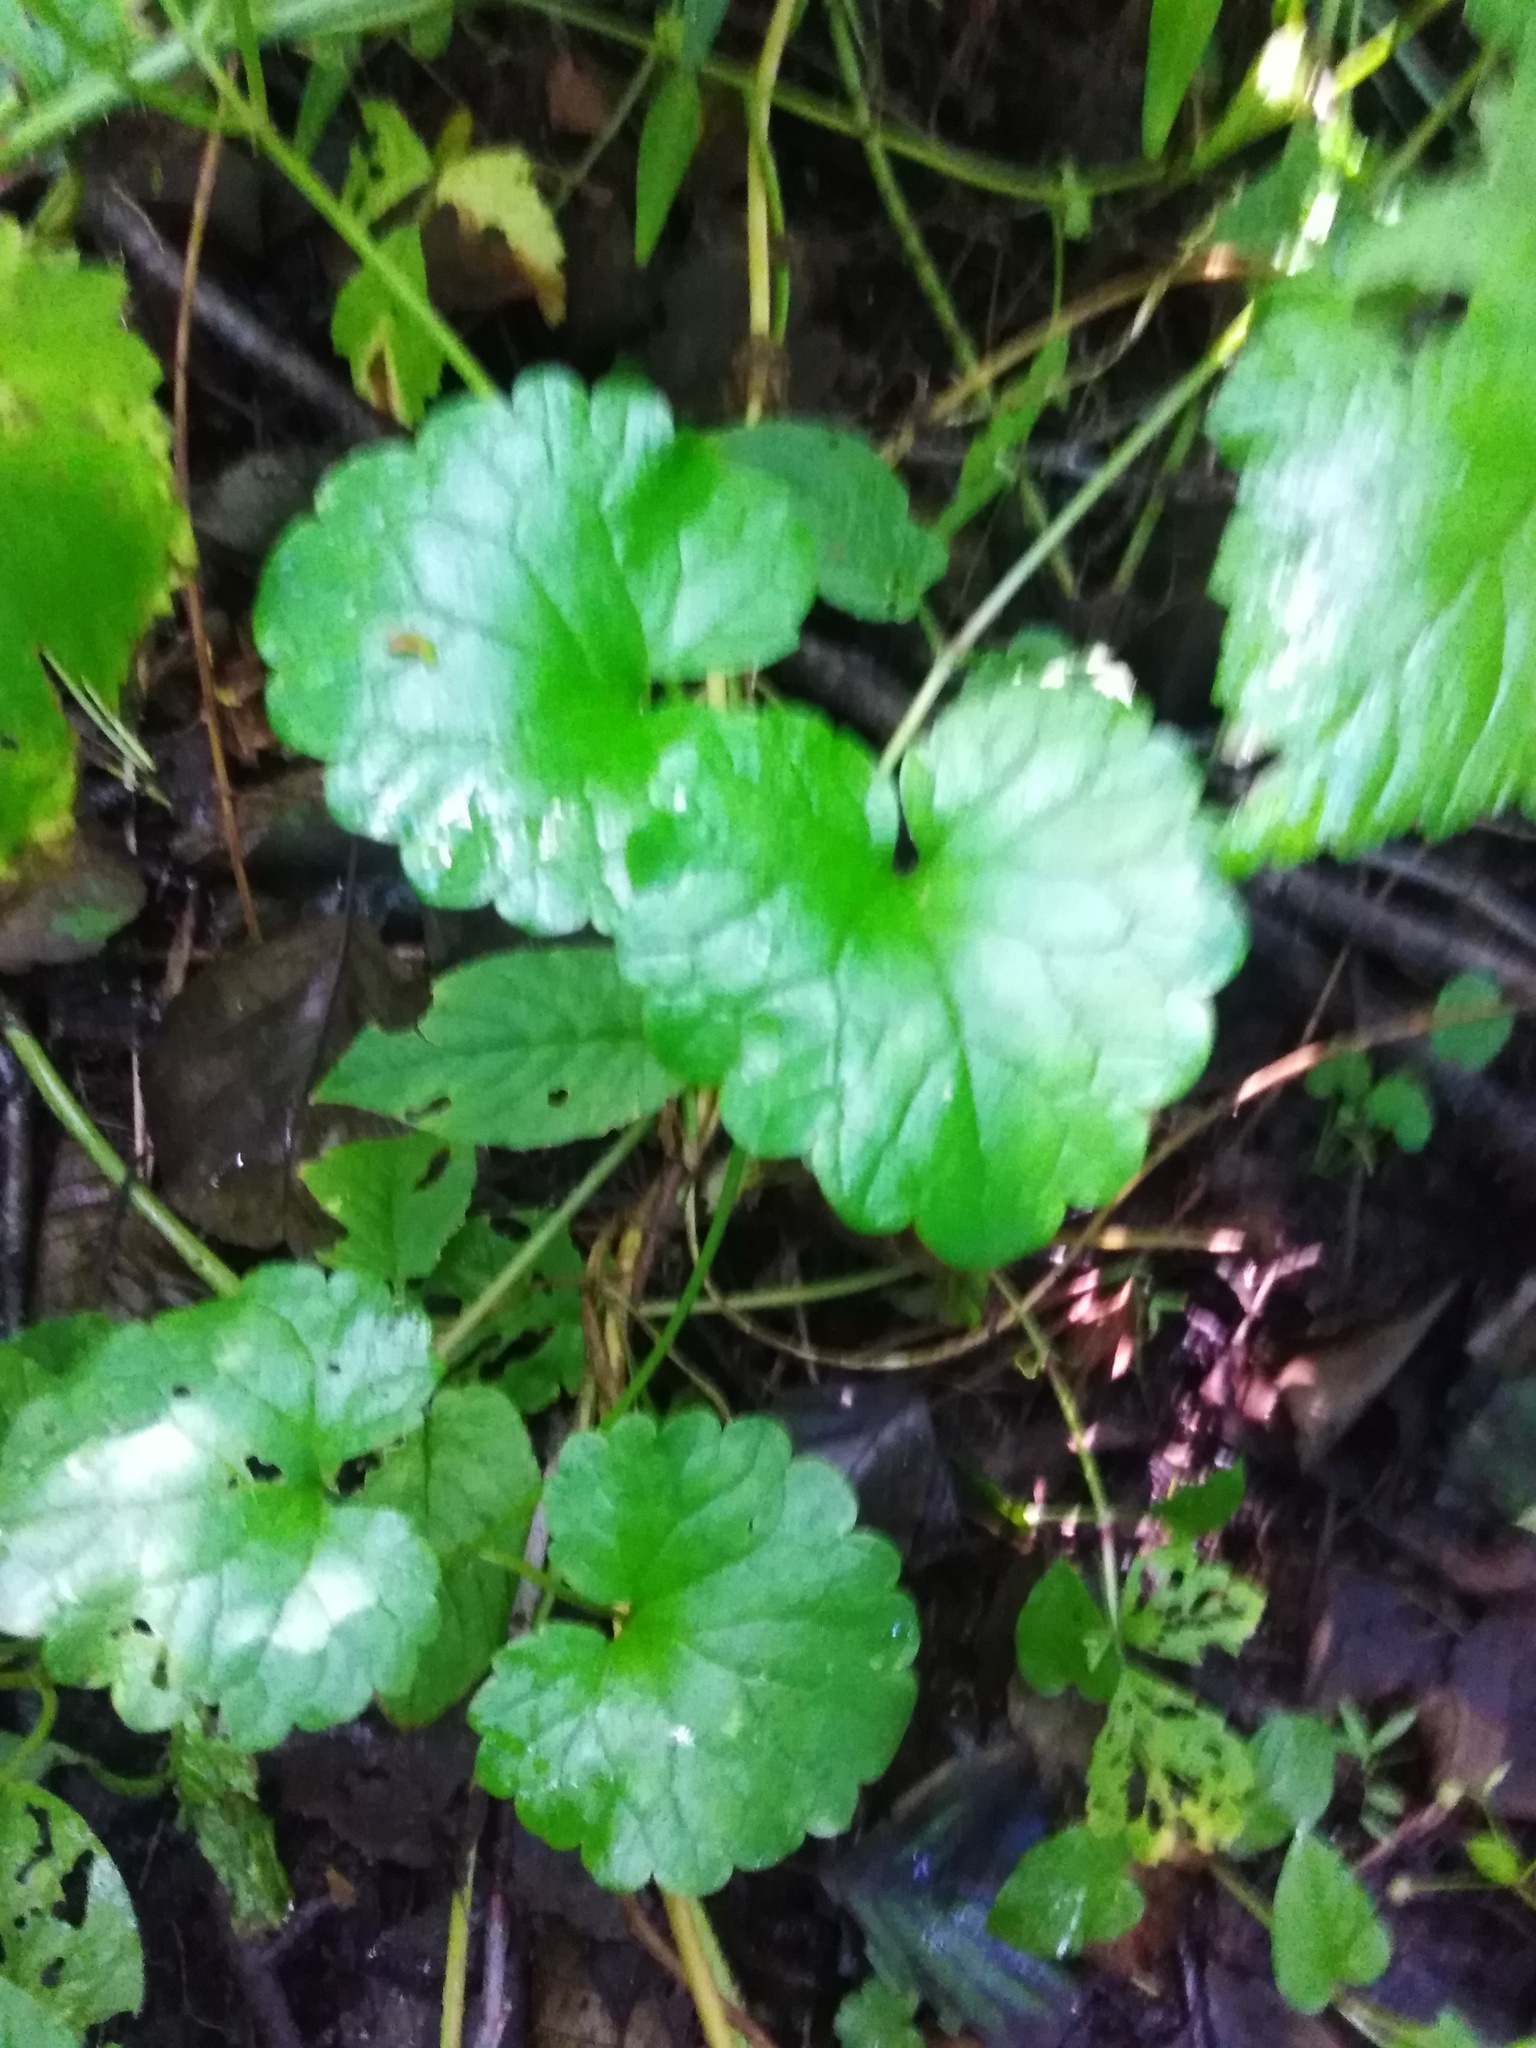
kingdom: Plantae
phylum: Tracheophyta
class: Magnoliopsida
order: Lamiales
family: Lamiaceae
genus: Glechoma
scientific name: Glechoma hederacea
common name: Ground ivy
